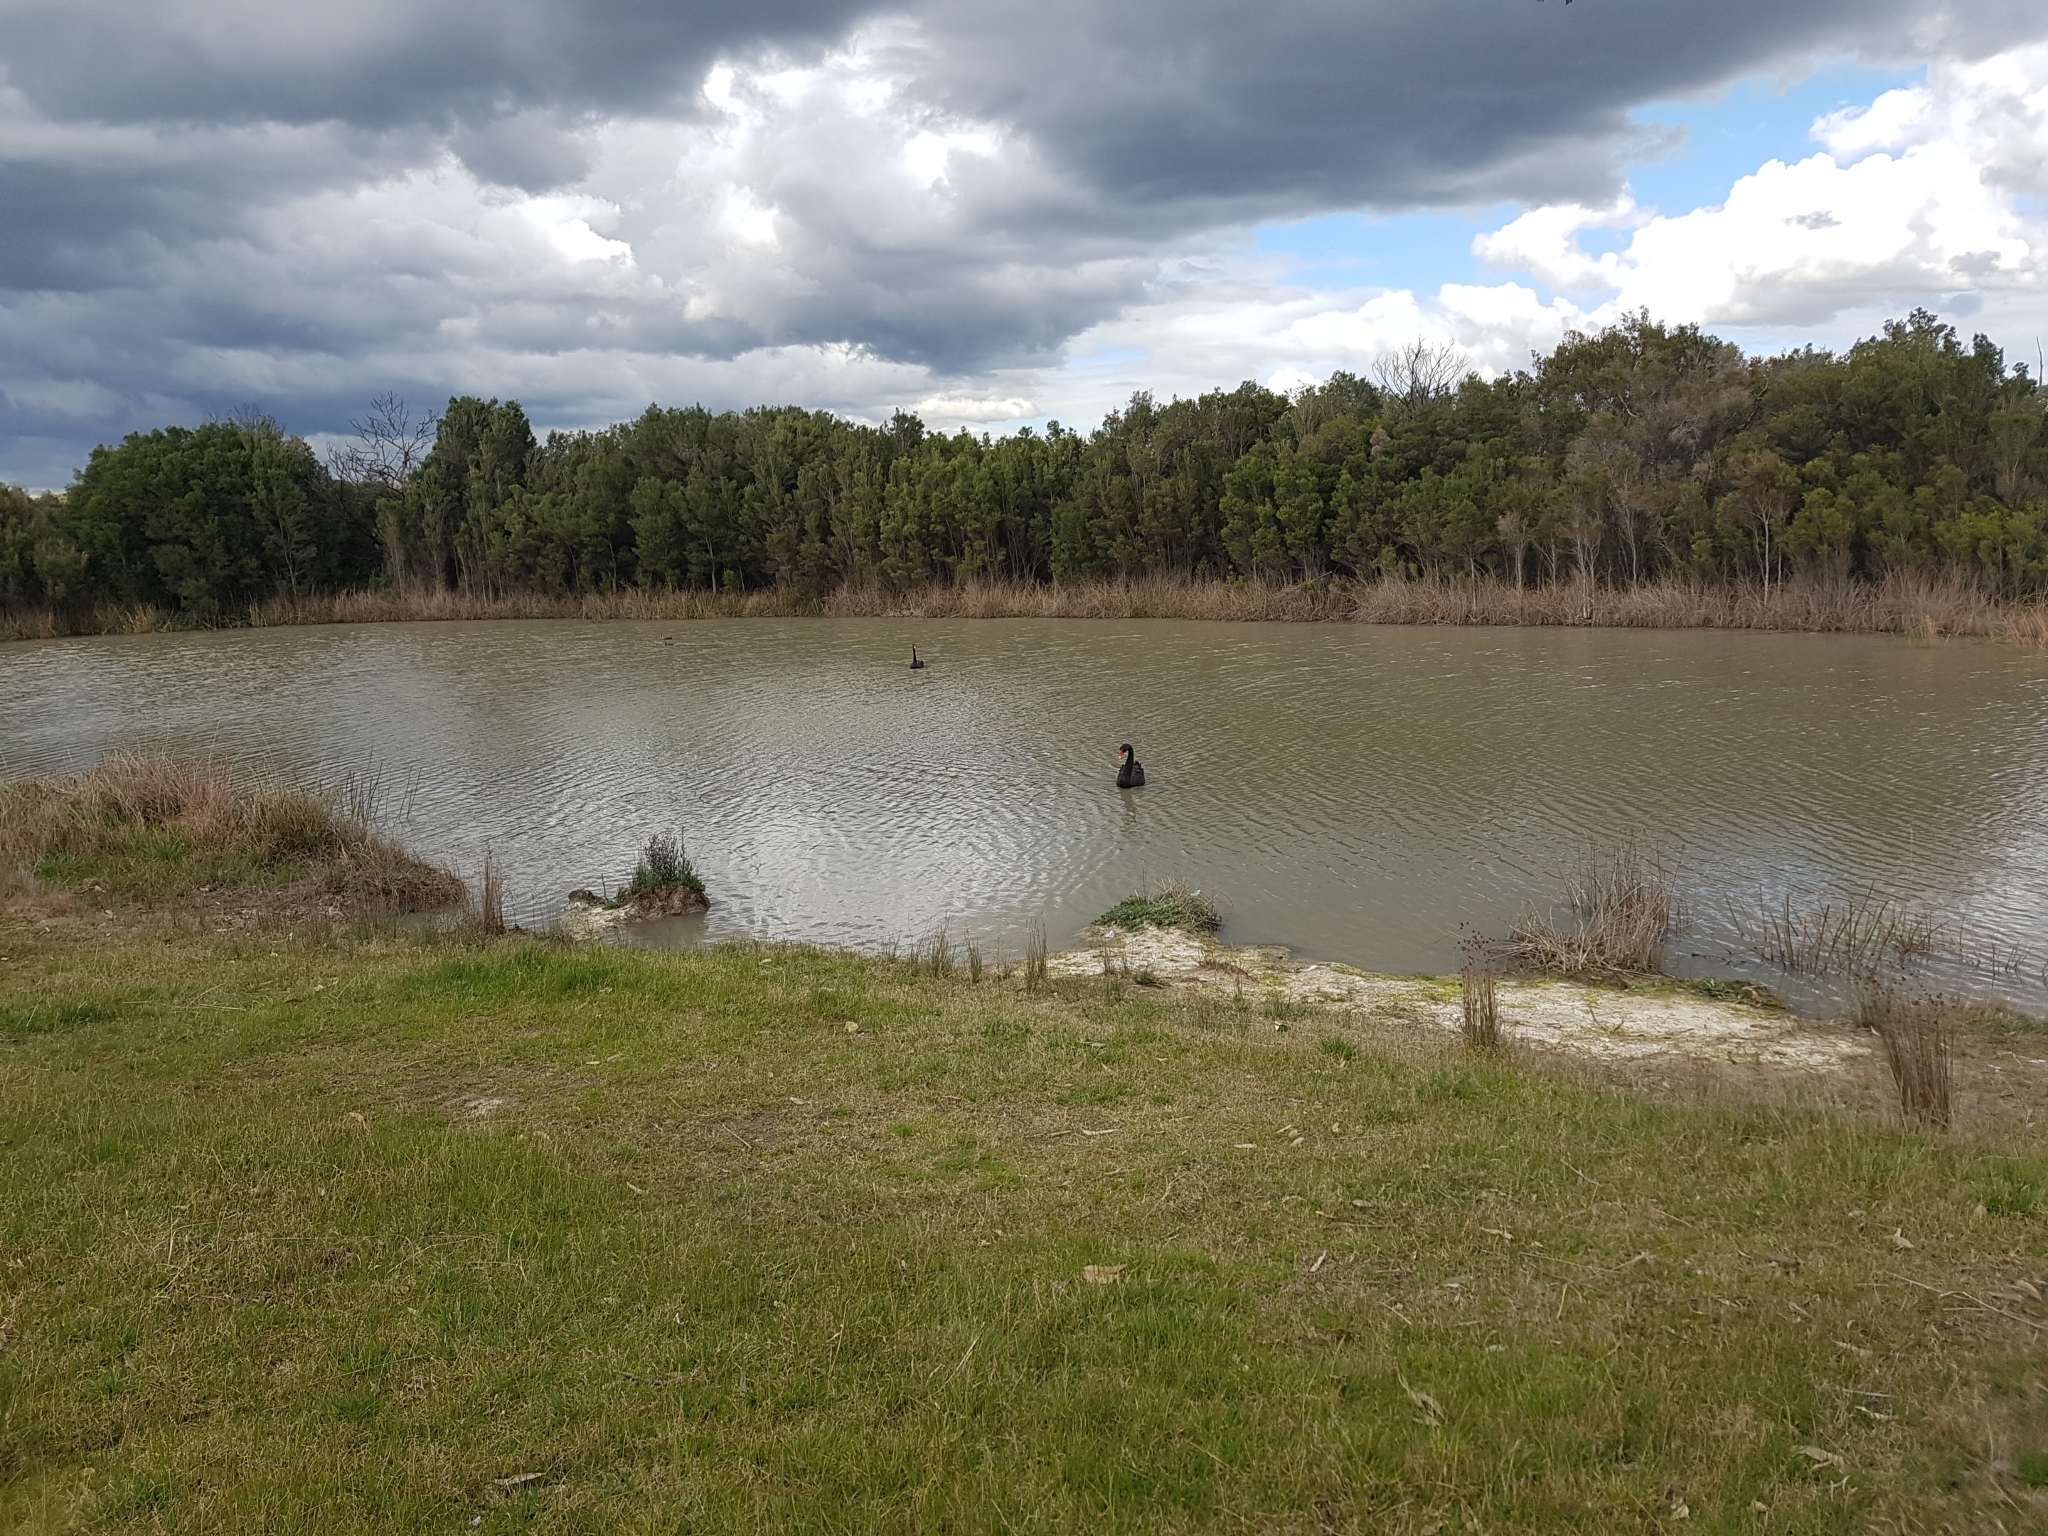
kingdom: Animalia
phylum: Chordata
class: Aves
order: Anseriformes
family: Anatidae
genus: Cygnus
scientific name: Cygnus atratus
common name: Black swan
